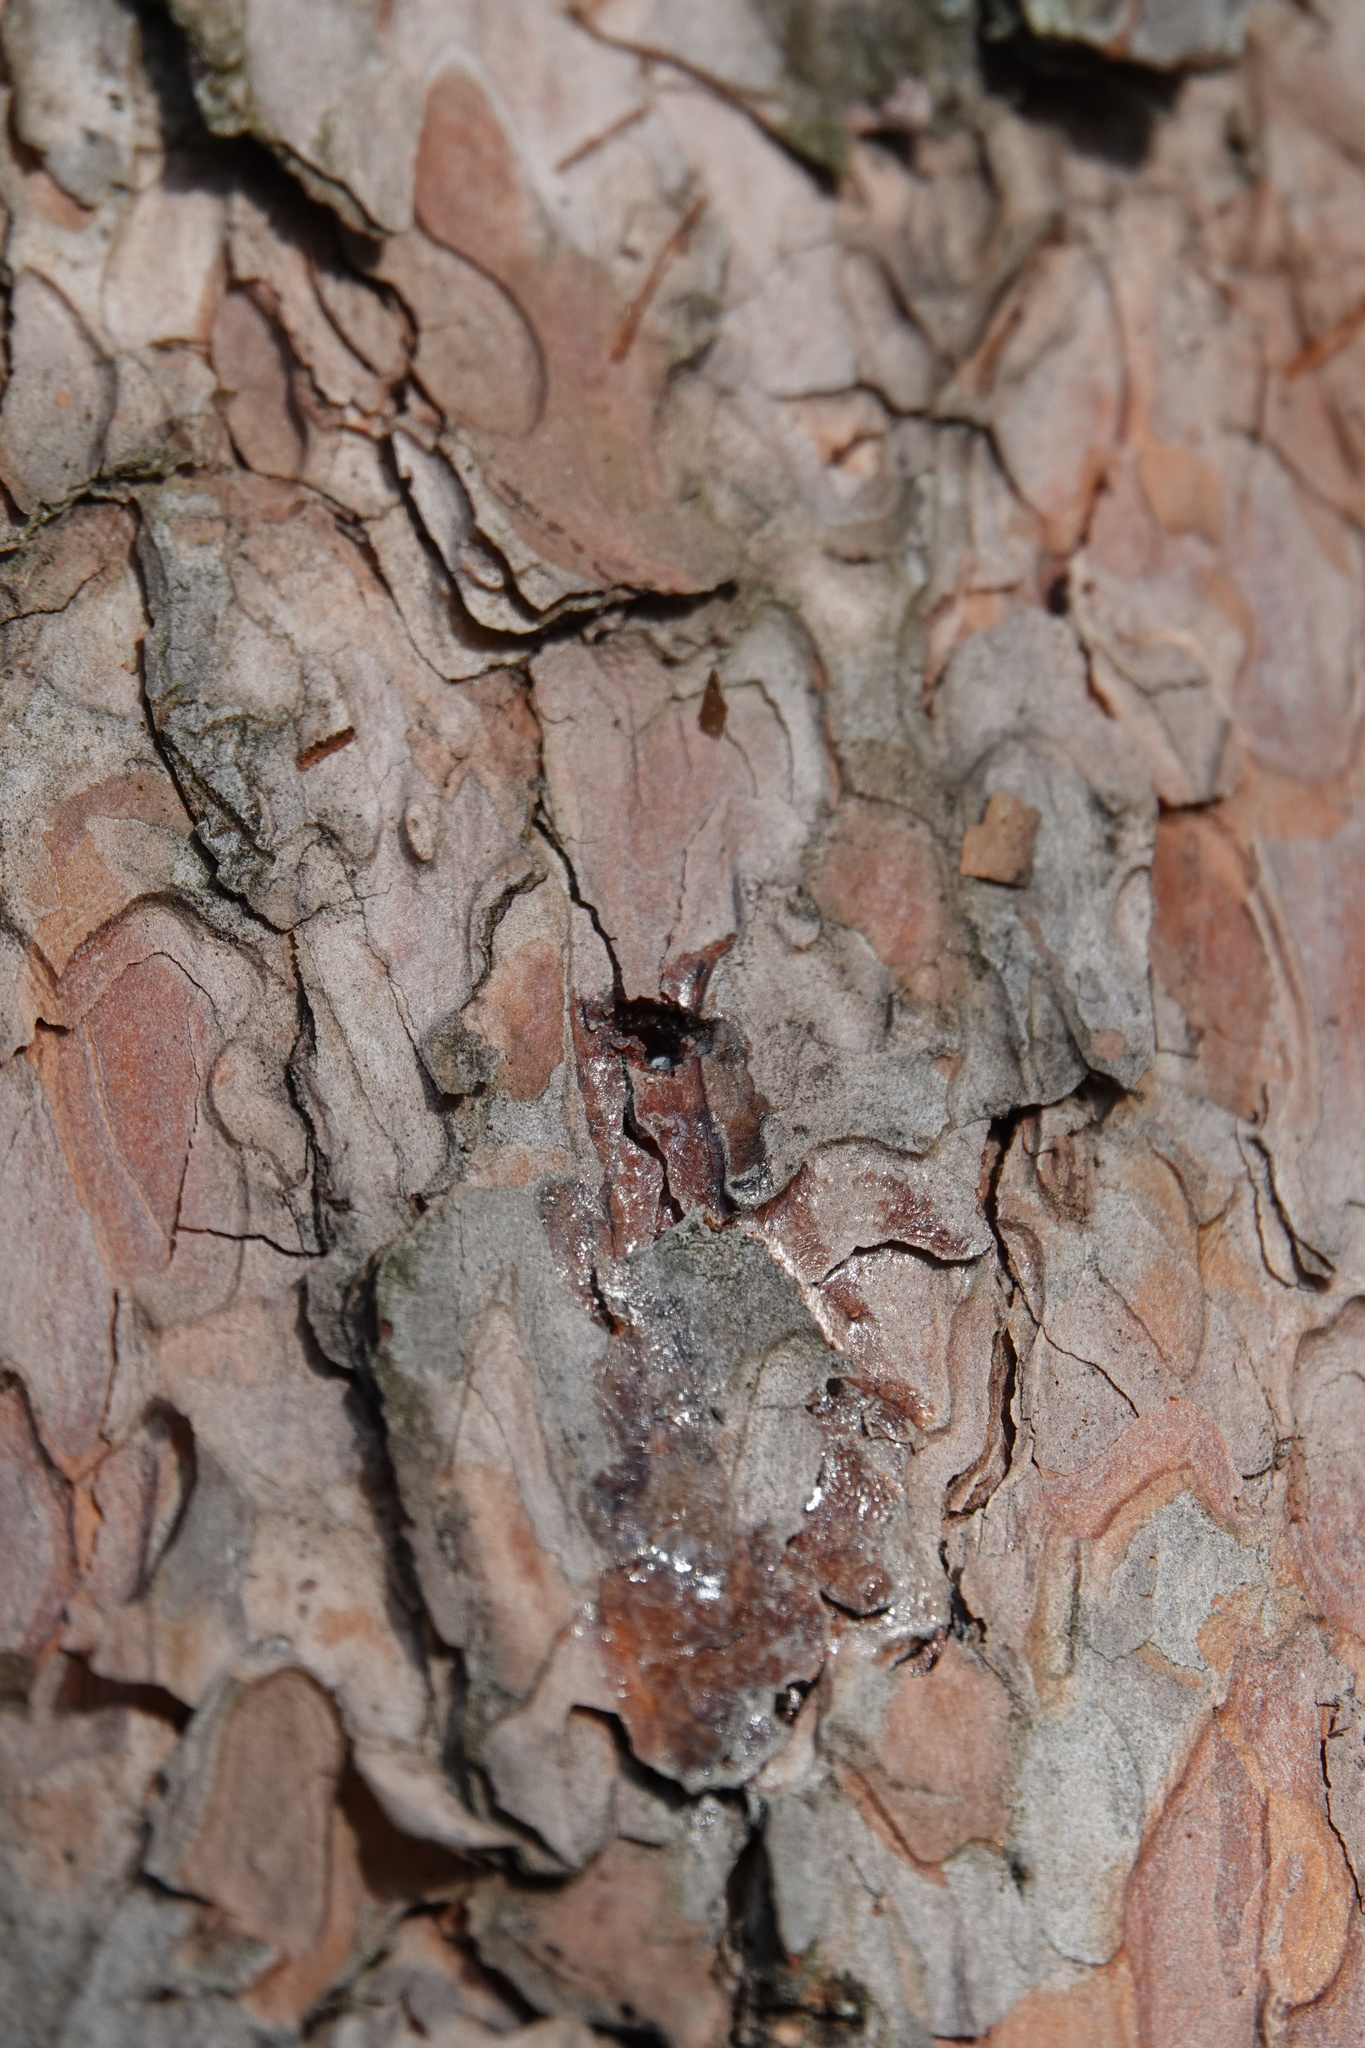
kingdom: Animalia
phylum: Chordata
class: Aves
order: Piciformes
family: Picidae
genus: Sphyrapicus
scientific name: Sphyrapicus varius
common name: Yellow-bellied sapsucker
